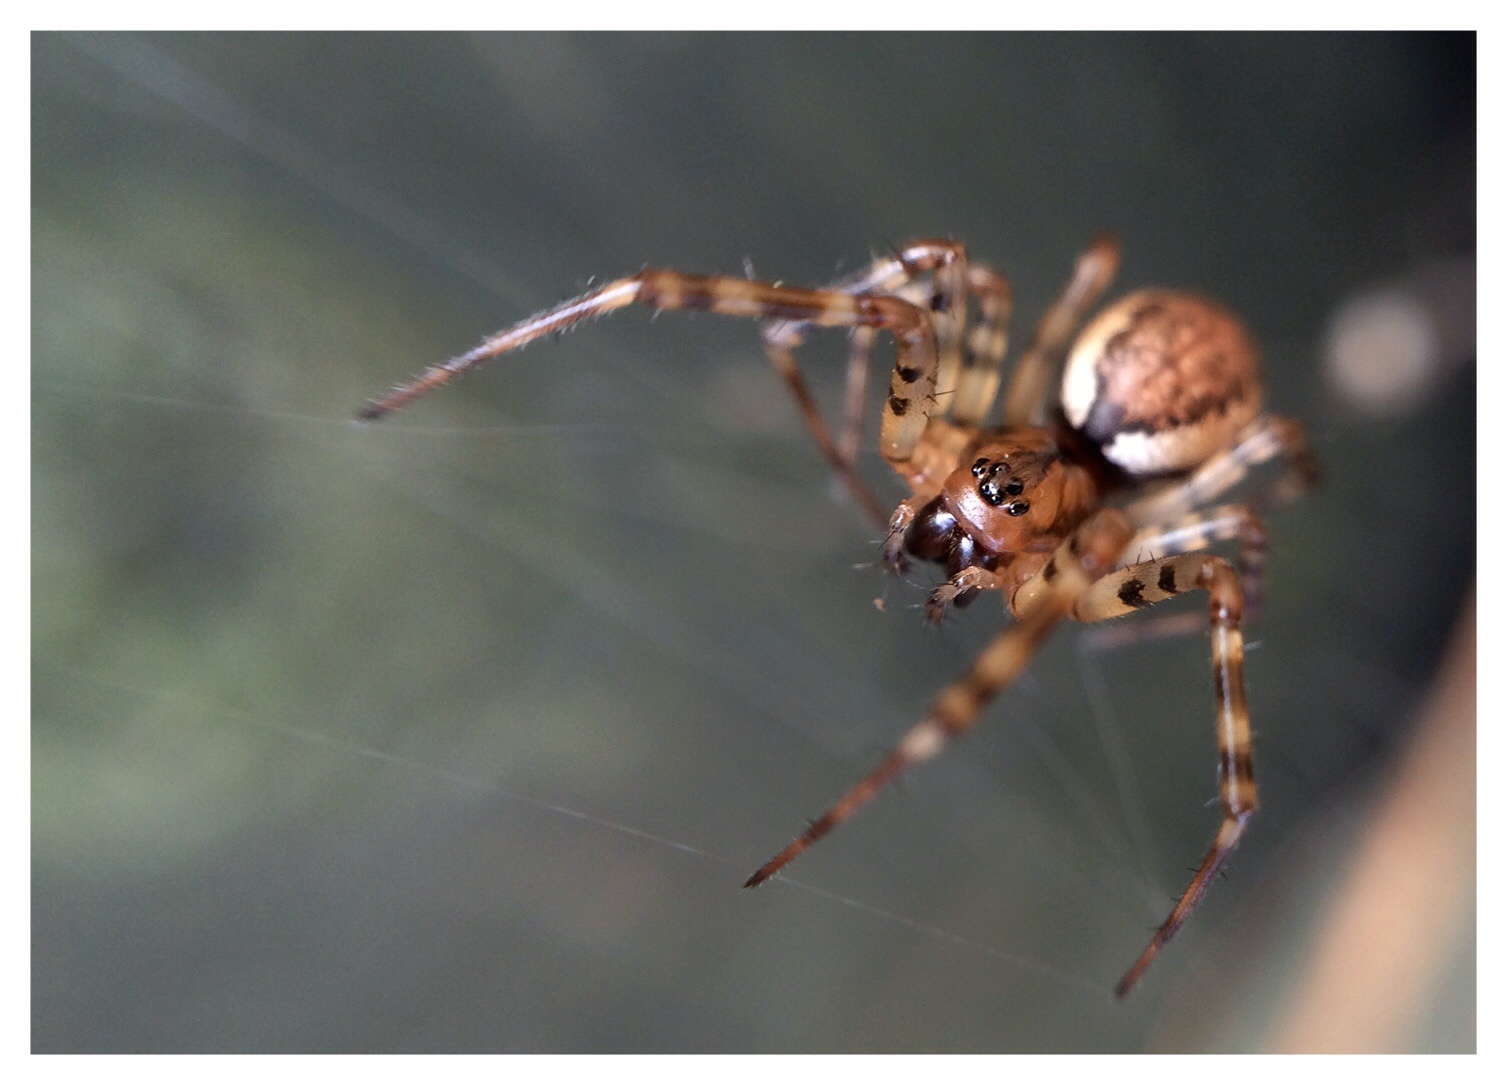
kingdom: Animalia
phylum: Arthropoda
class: Arachnida
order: Araneae
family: Linyphiidae
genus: Neriene
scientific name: Neriene montana
